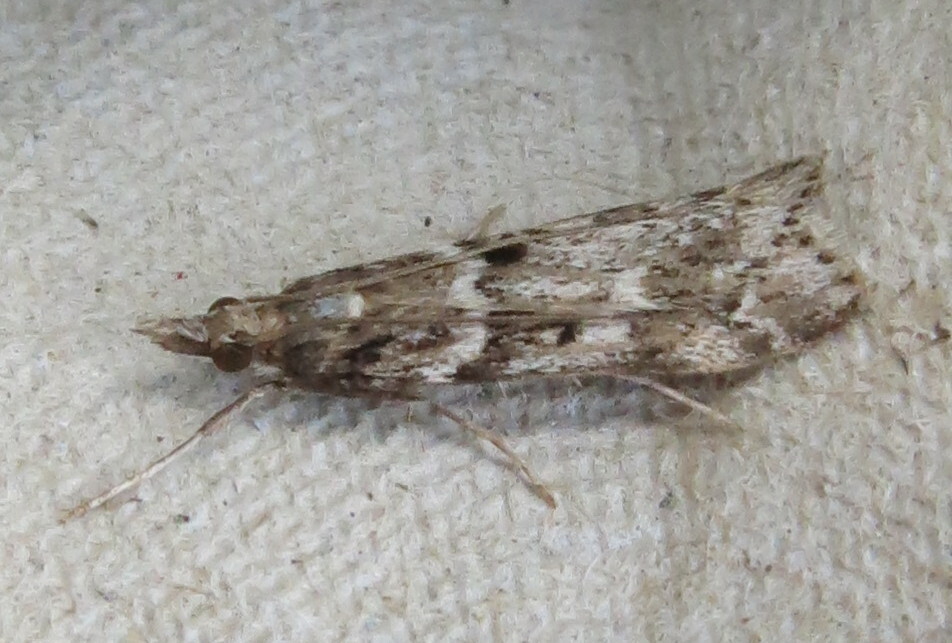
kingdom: Animalia
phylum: Arthropoda
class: Insecta
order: Lepidoptera
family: Crambidae
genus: Eudonia
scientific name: Eudonia angustea
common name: Narrow-winged grey
